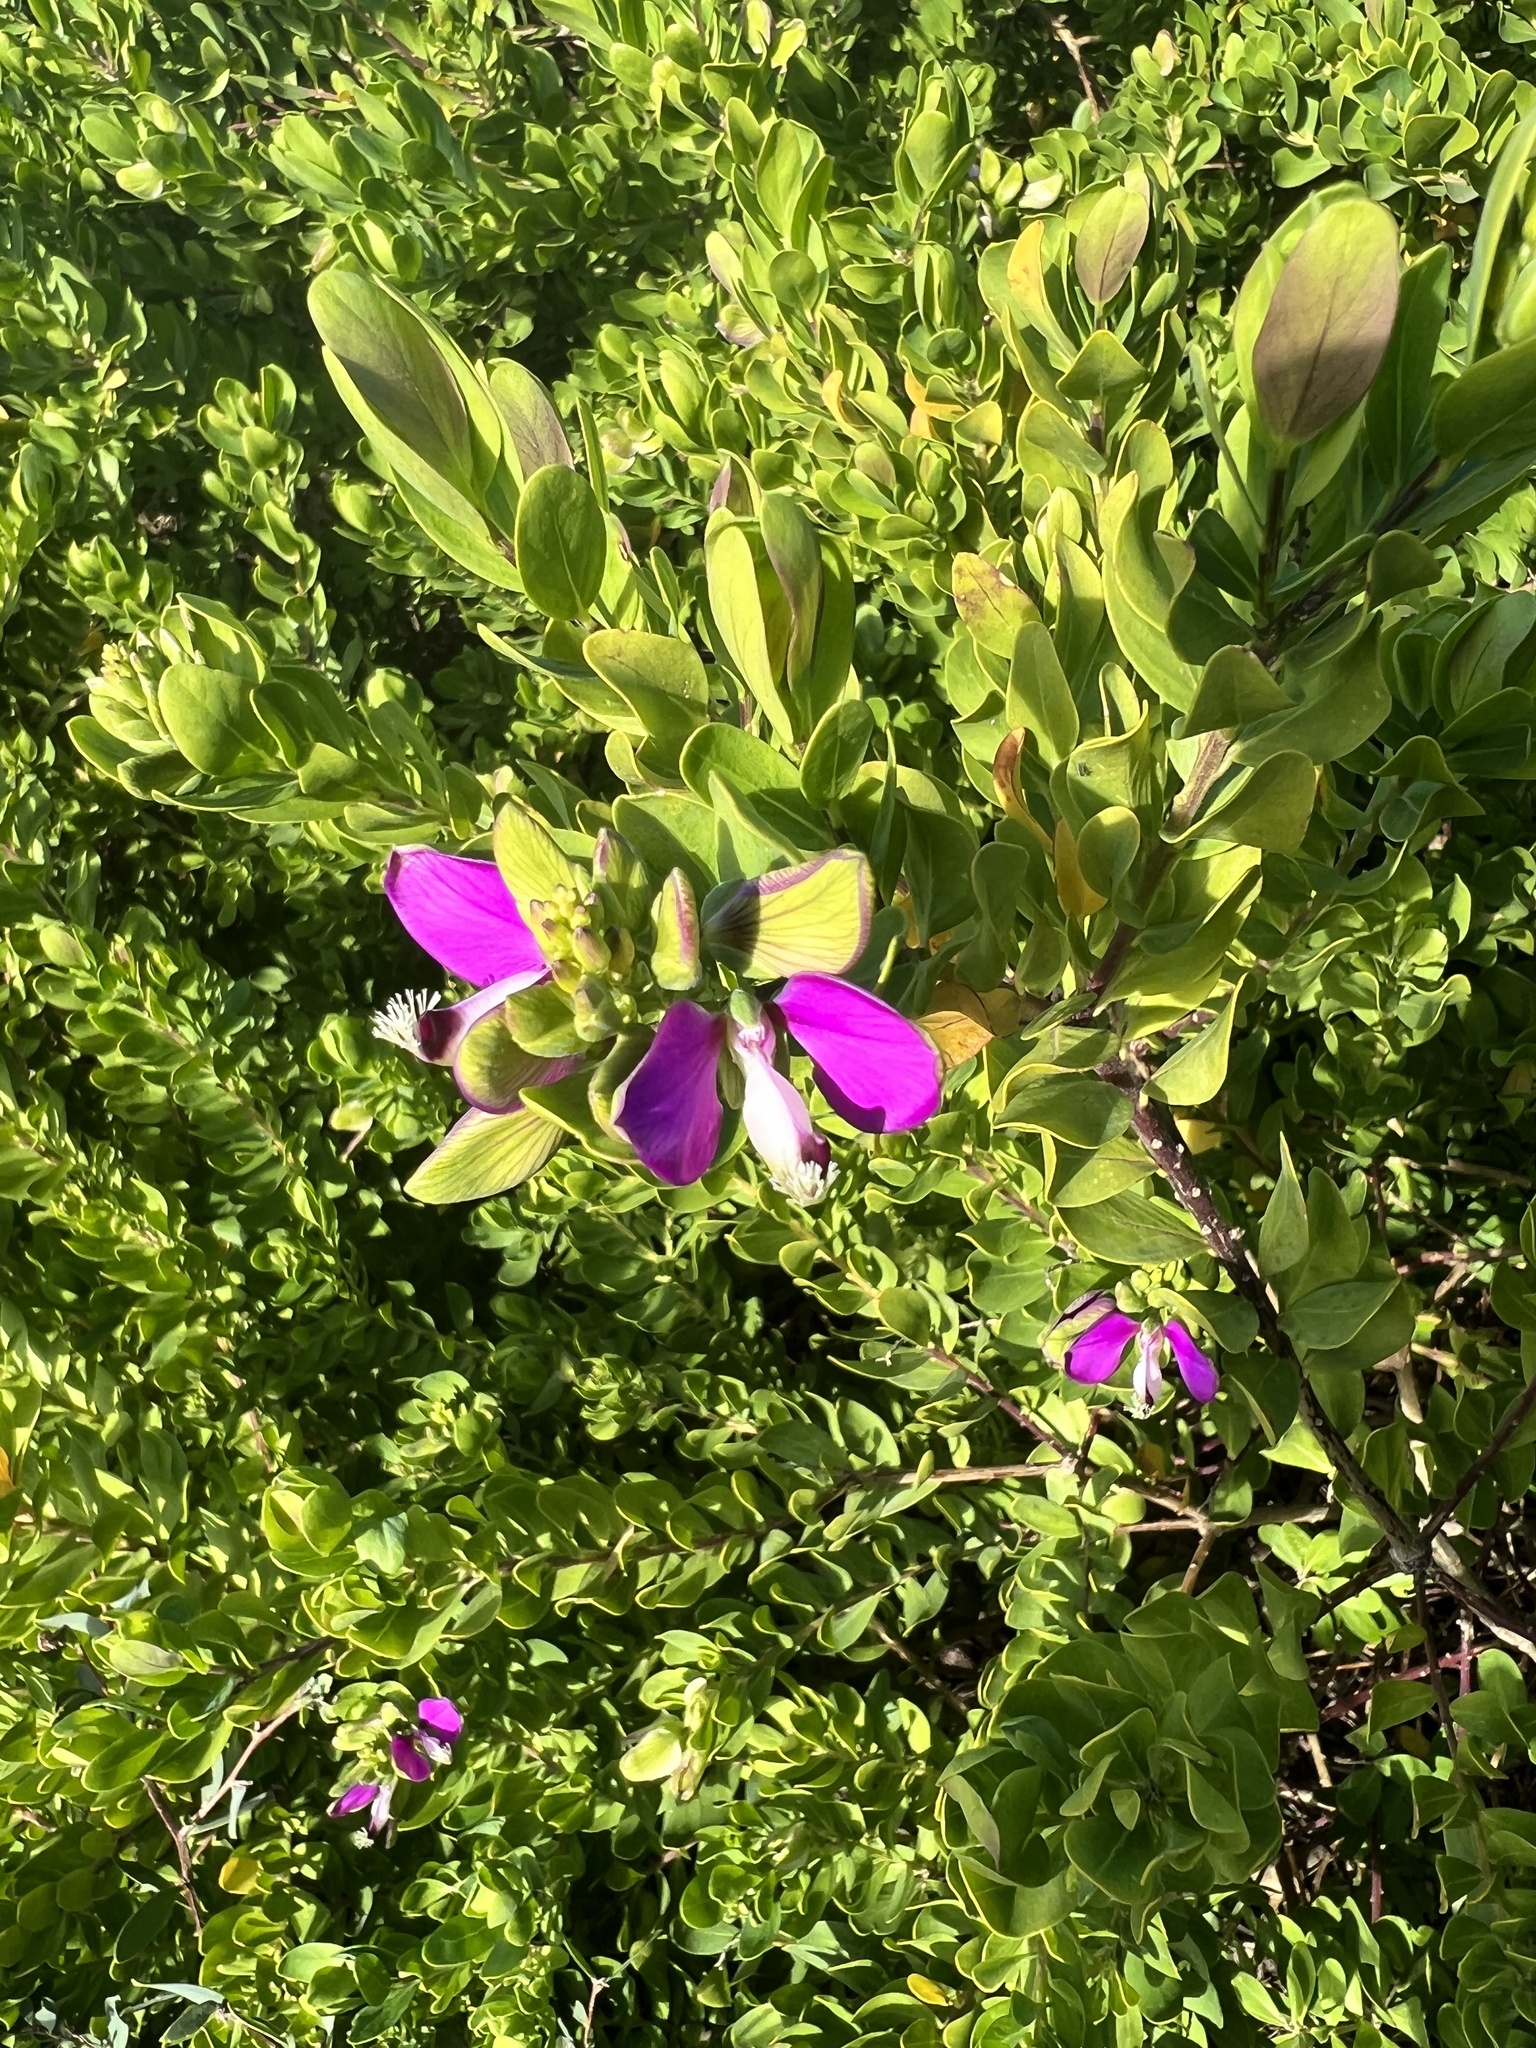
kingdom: Plantae
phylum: Tracheophyta
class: Magnoliopsida
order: Fabales
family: Polygalaceae
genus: Polygala
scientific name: Polygala myrtifolia
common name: Myrtle-leaf milkwort
